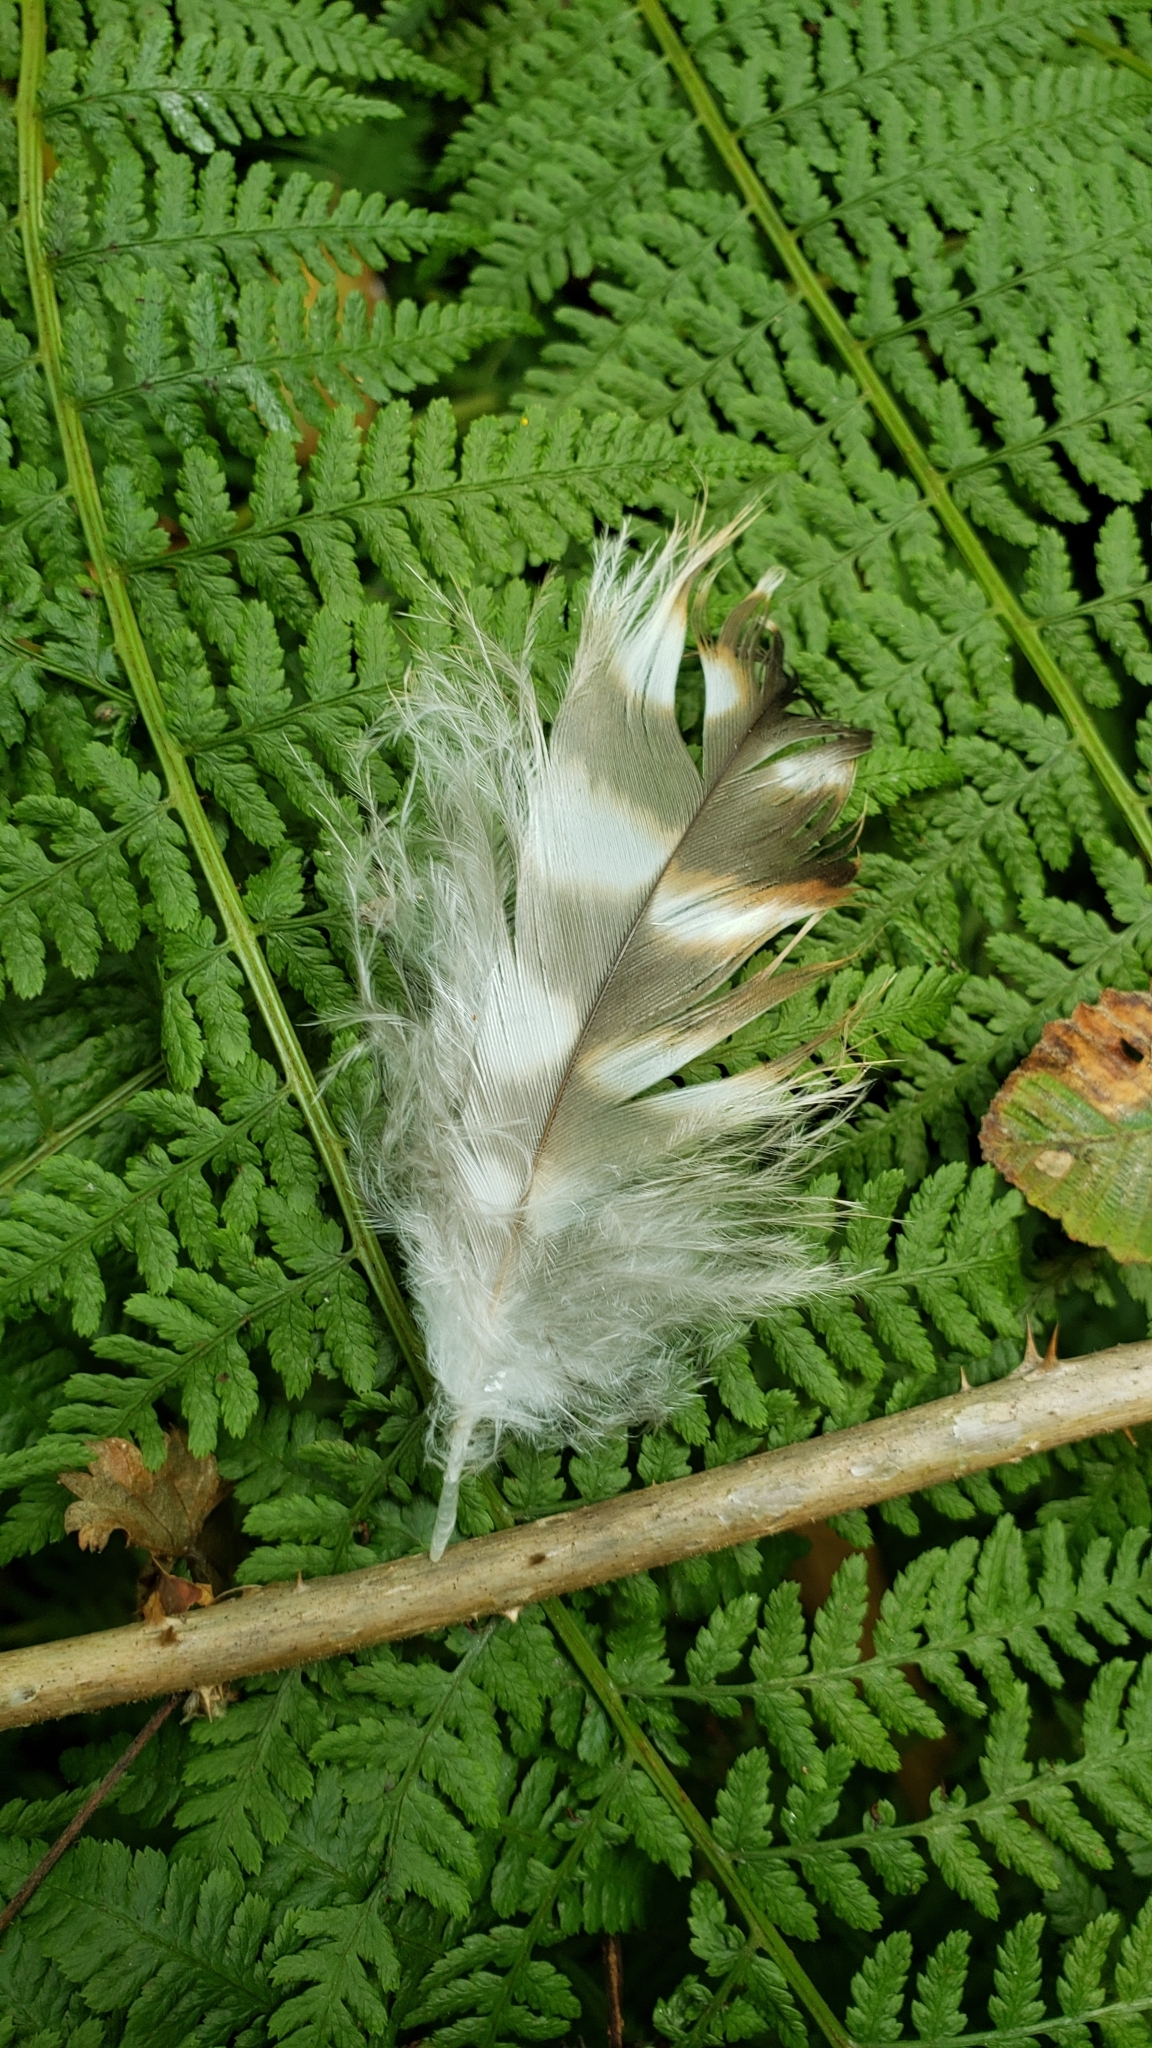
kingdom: Animalia
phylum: Chordata
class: Aves
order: Accipitriformes
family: Accipitridae
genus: Buteo
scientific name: Buteo lineatus
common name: Red-shouldered hawk
